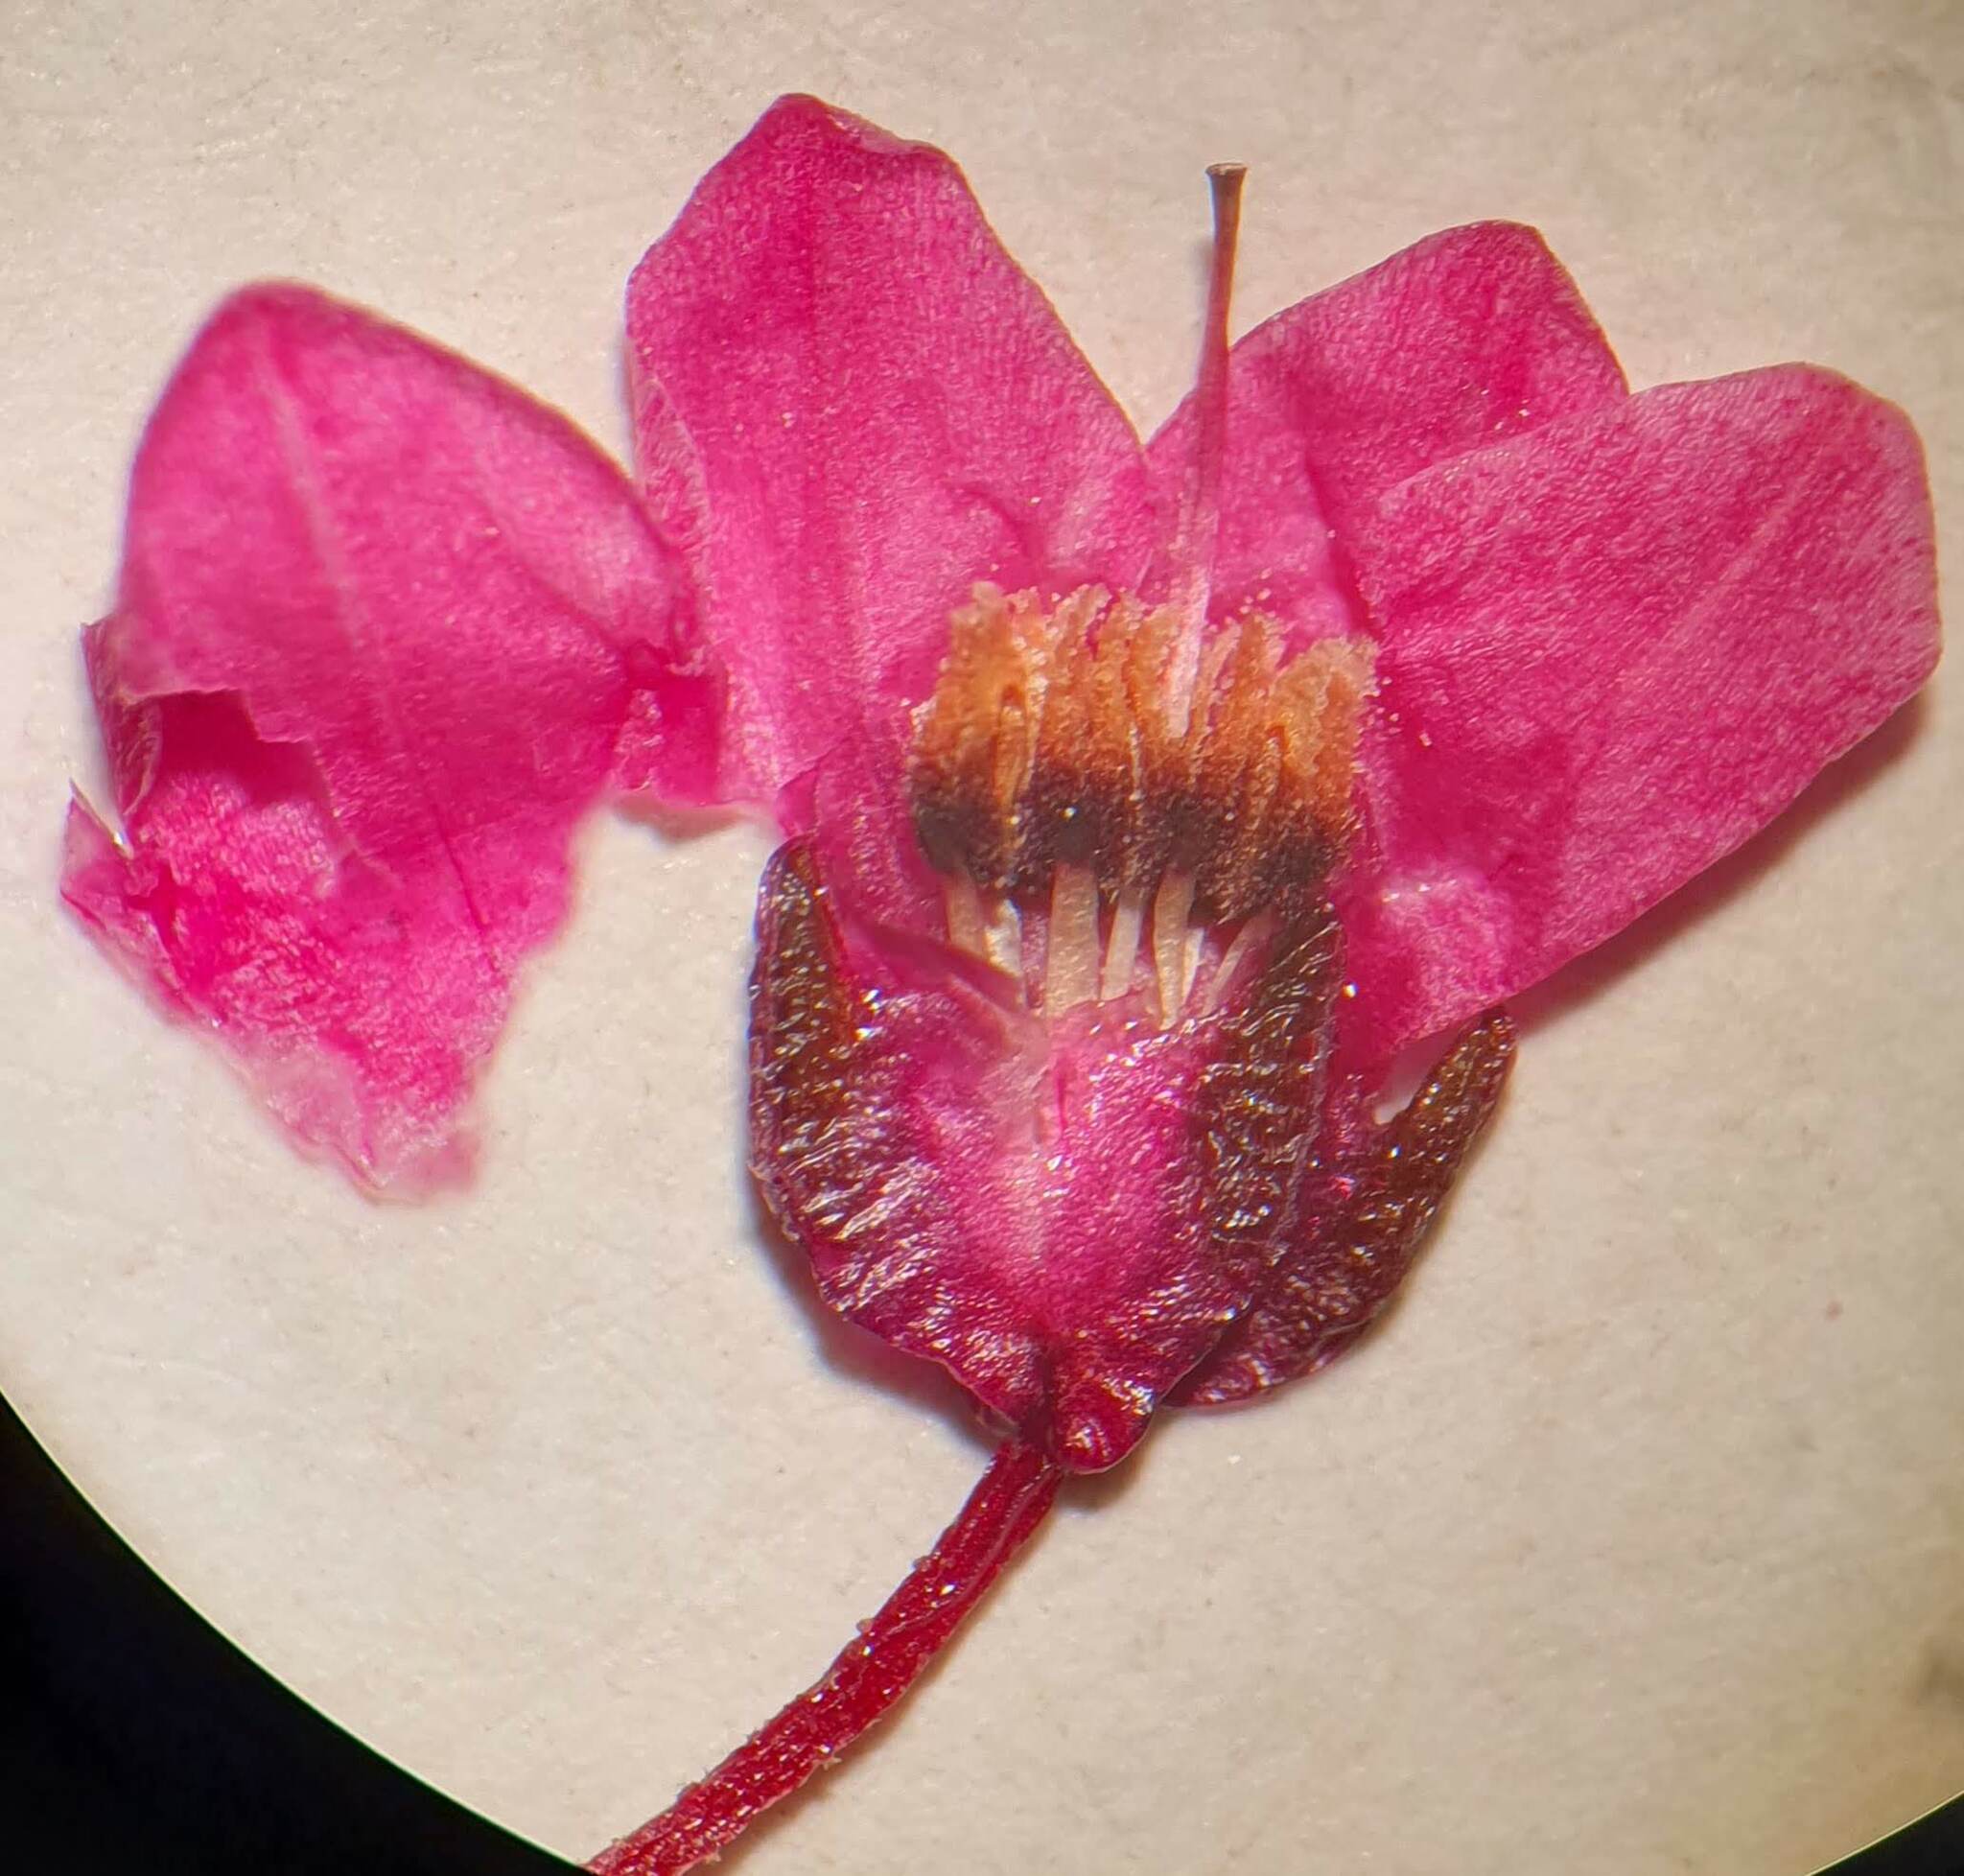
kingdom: Plantae
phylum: Tracheophyta
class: Magnoliopsida
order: Ericales
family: Ericaceae
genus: Erica
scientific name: Erica tetrathecoides
